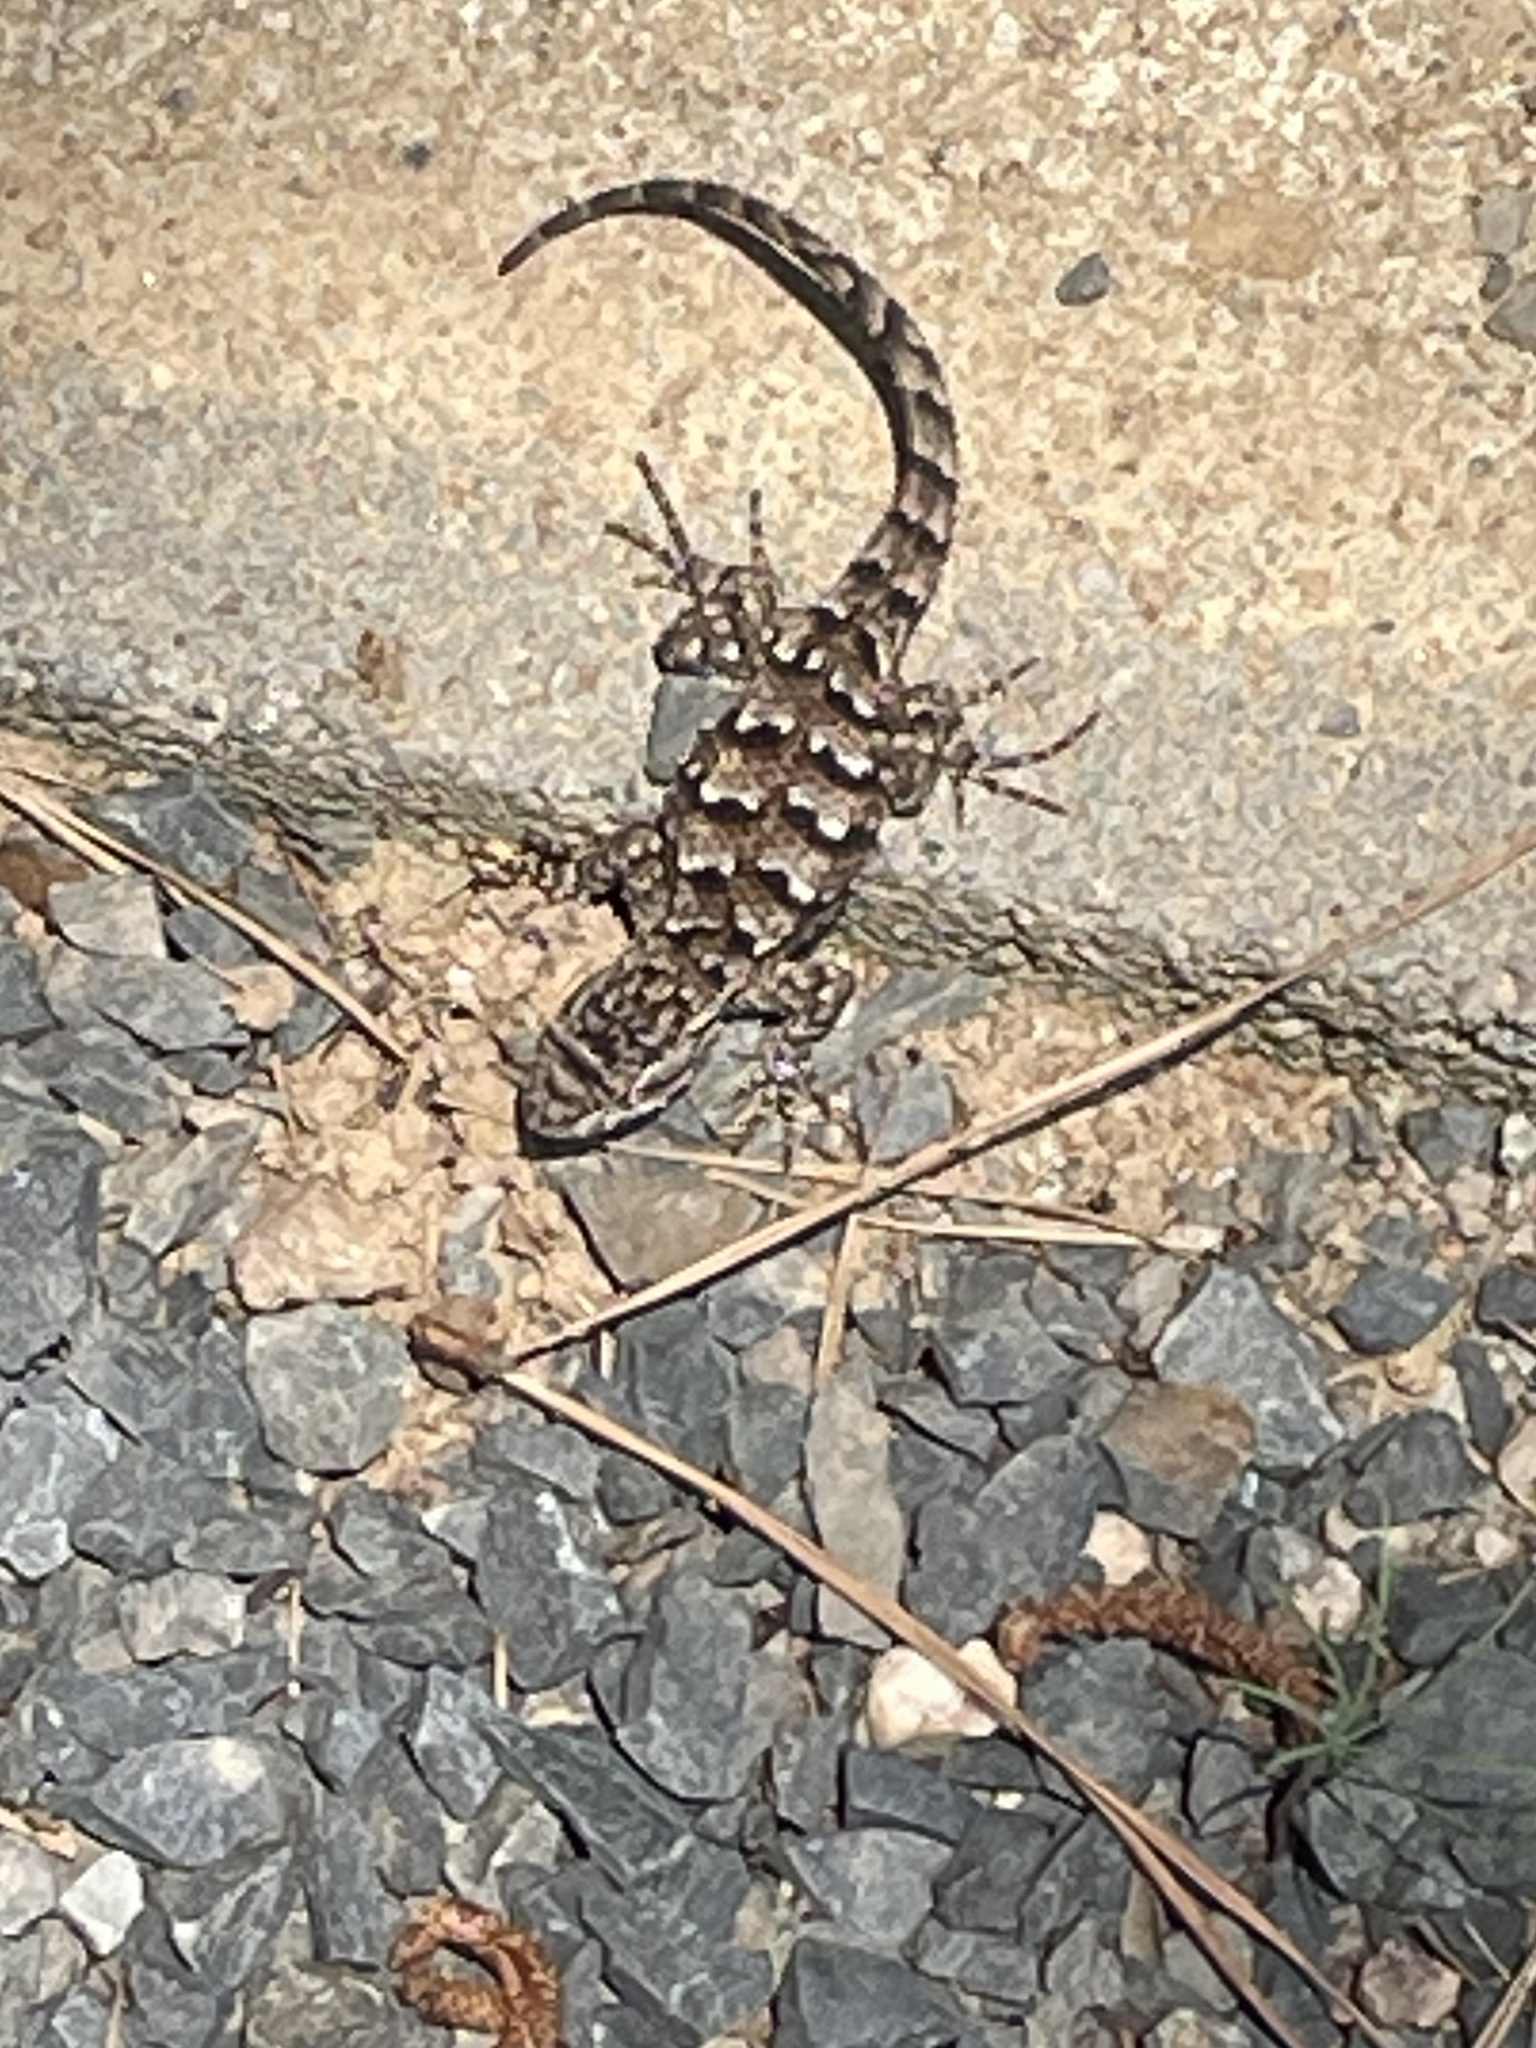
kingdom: Animalia
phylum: Chordata
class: Squamata
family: Phrynosomatidae
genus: Sceloporus
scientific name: Sceloporus undulatus
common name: Eastern fence lizard
